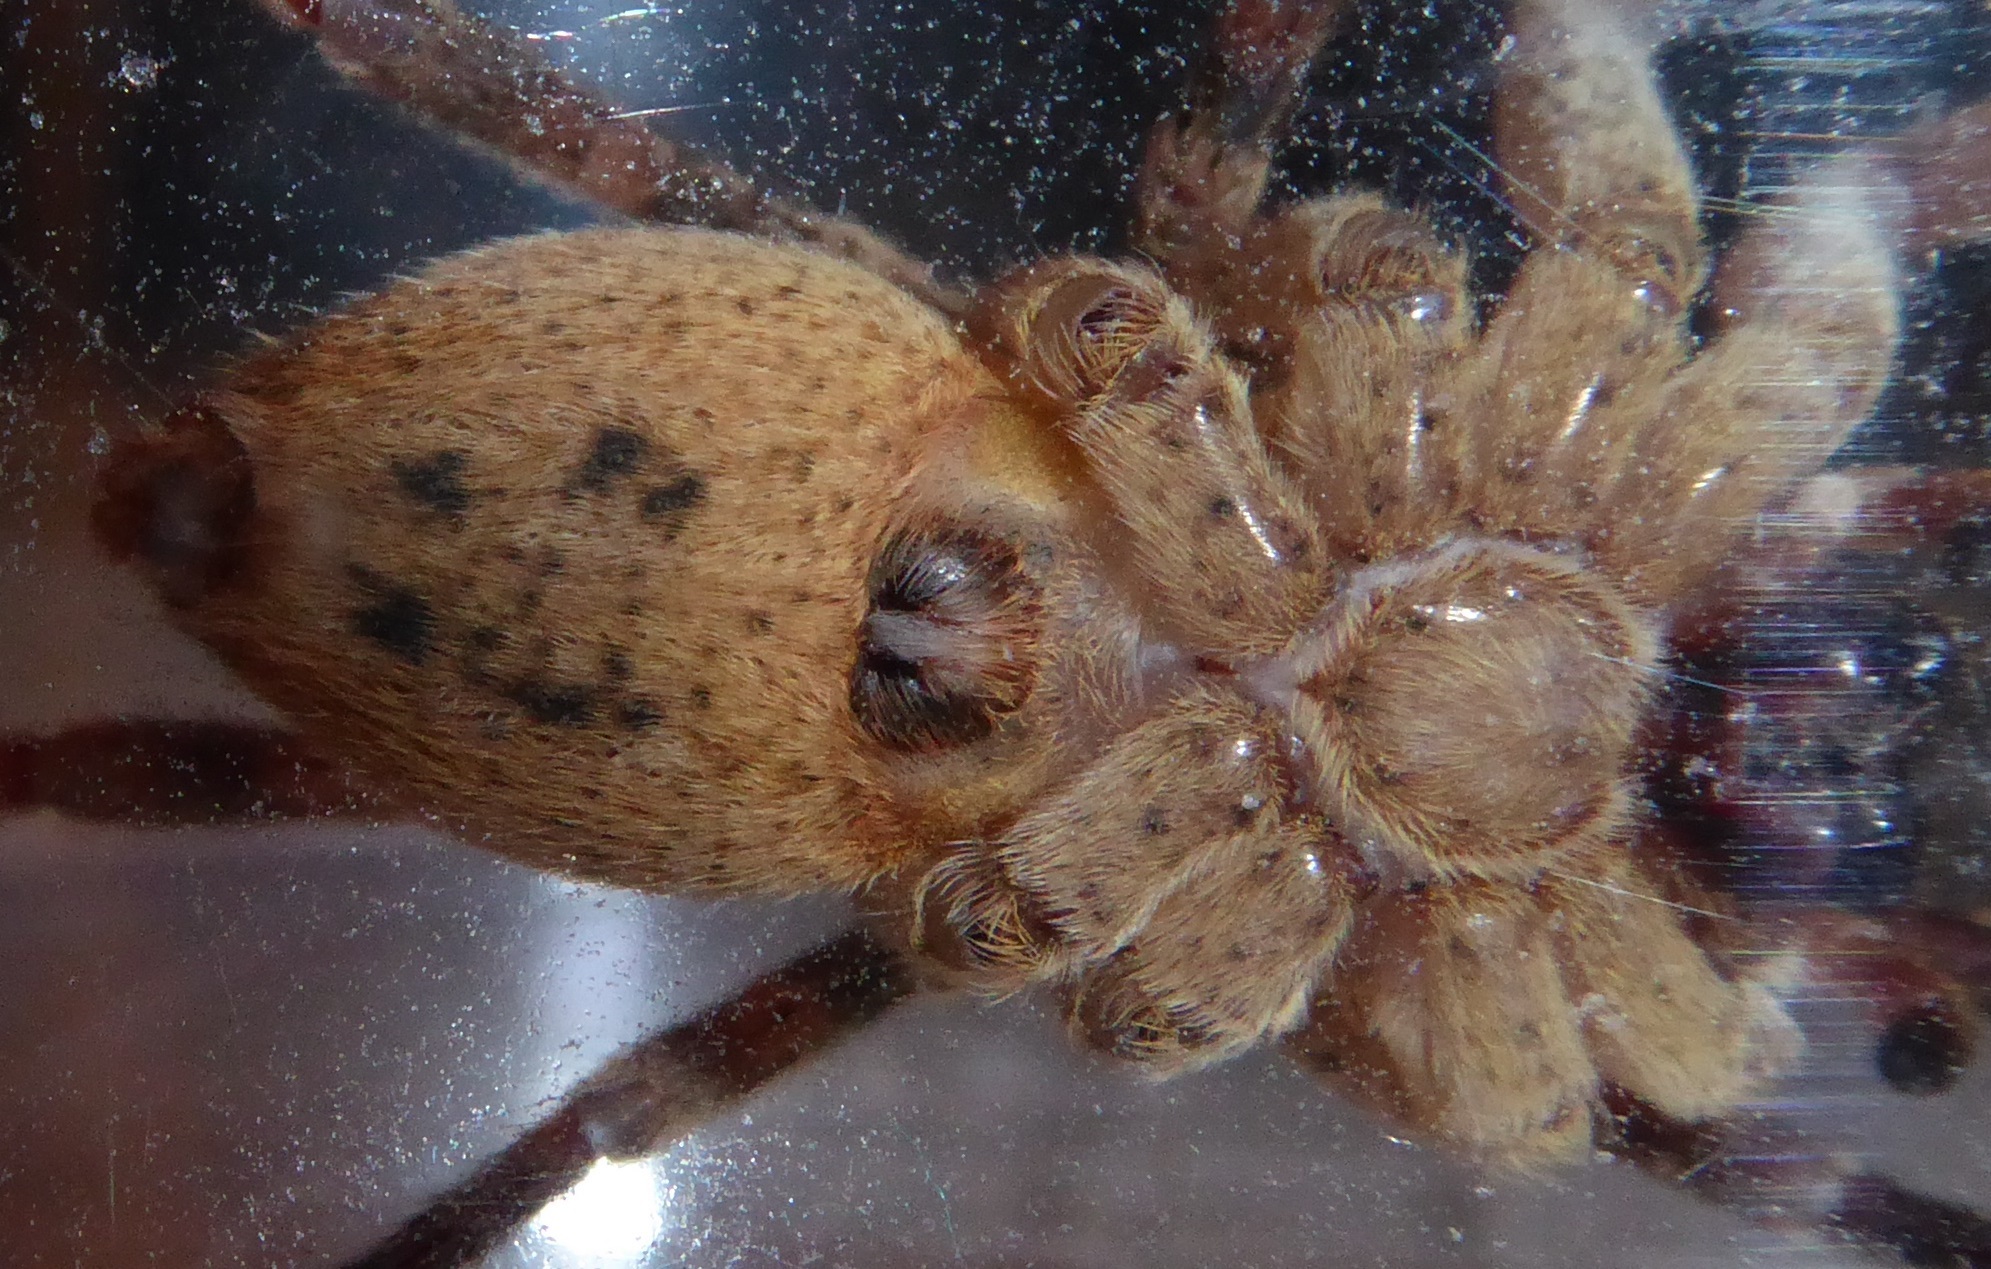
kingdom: Animalia
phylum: Arthropoda
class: Arachnida
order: Araneae
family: Zoropsidae
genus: Zoropsis
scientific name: Zoropsis spinimana
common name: Zoropsid spider
